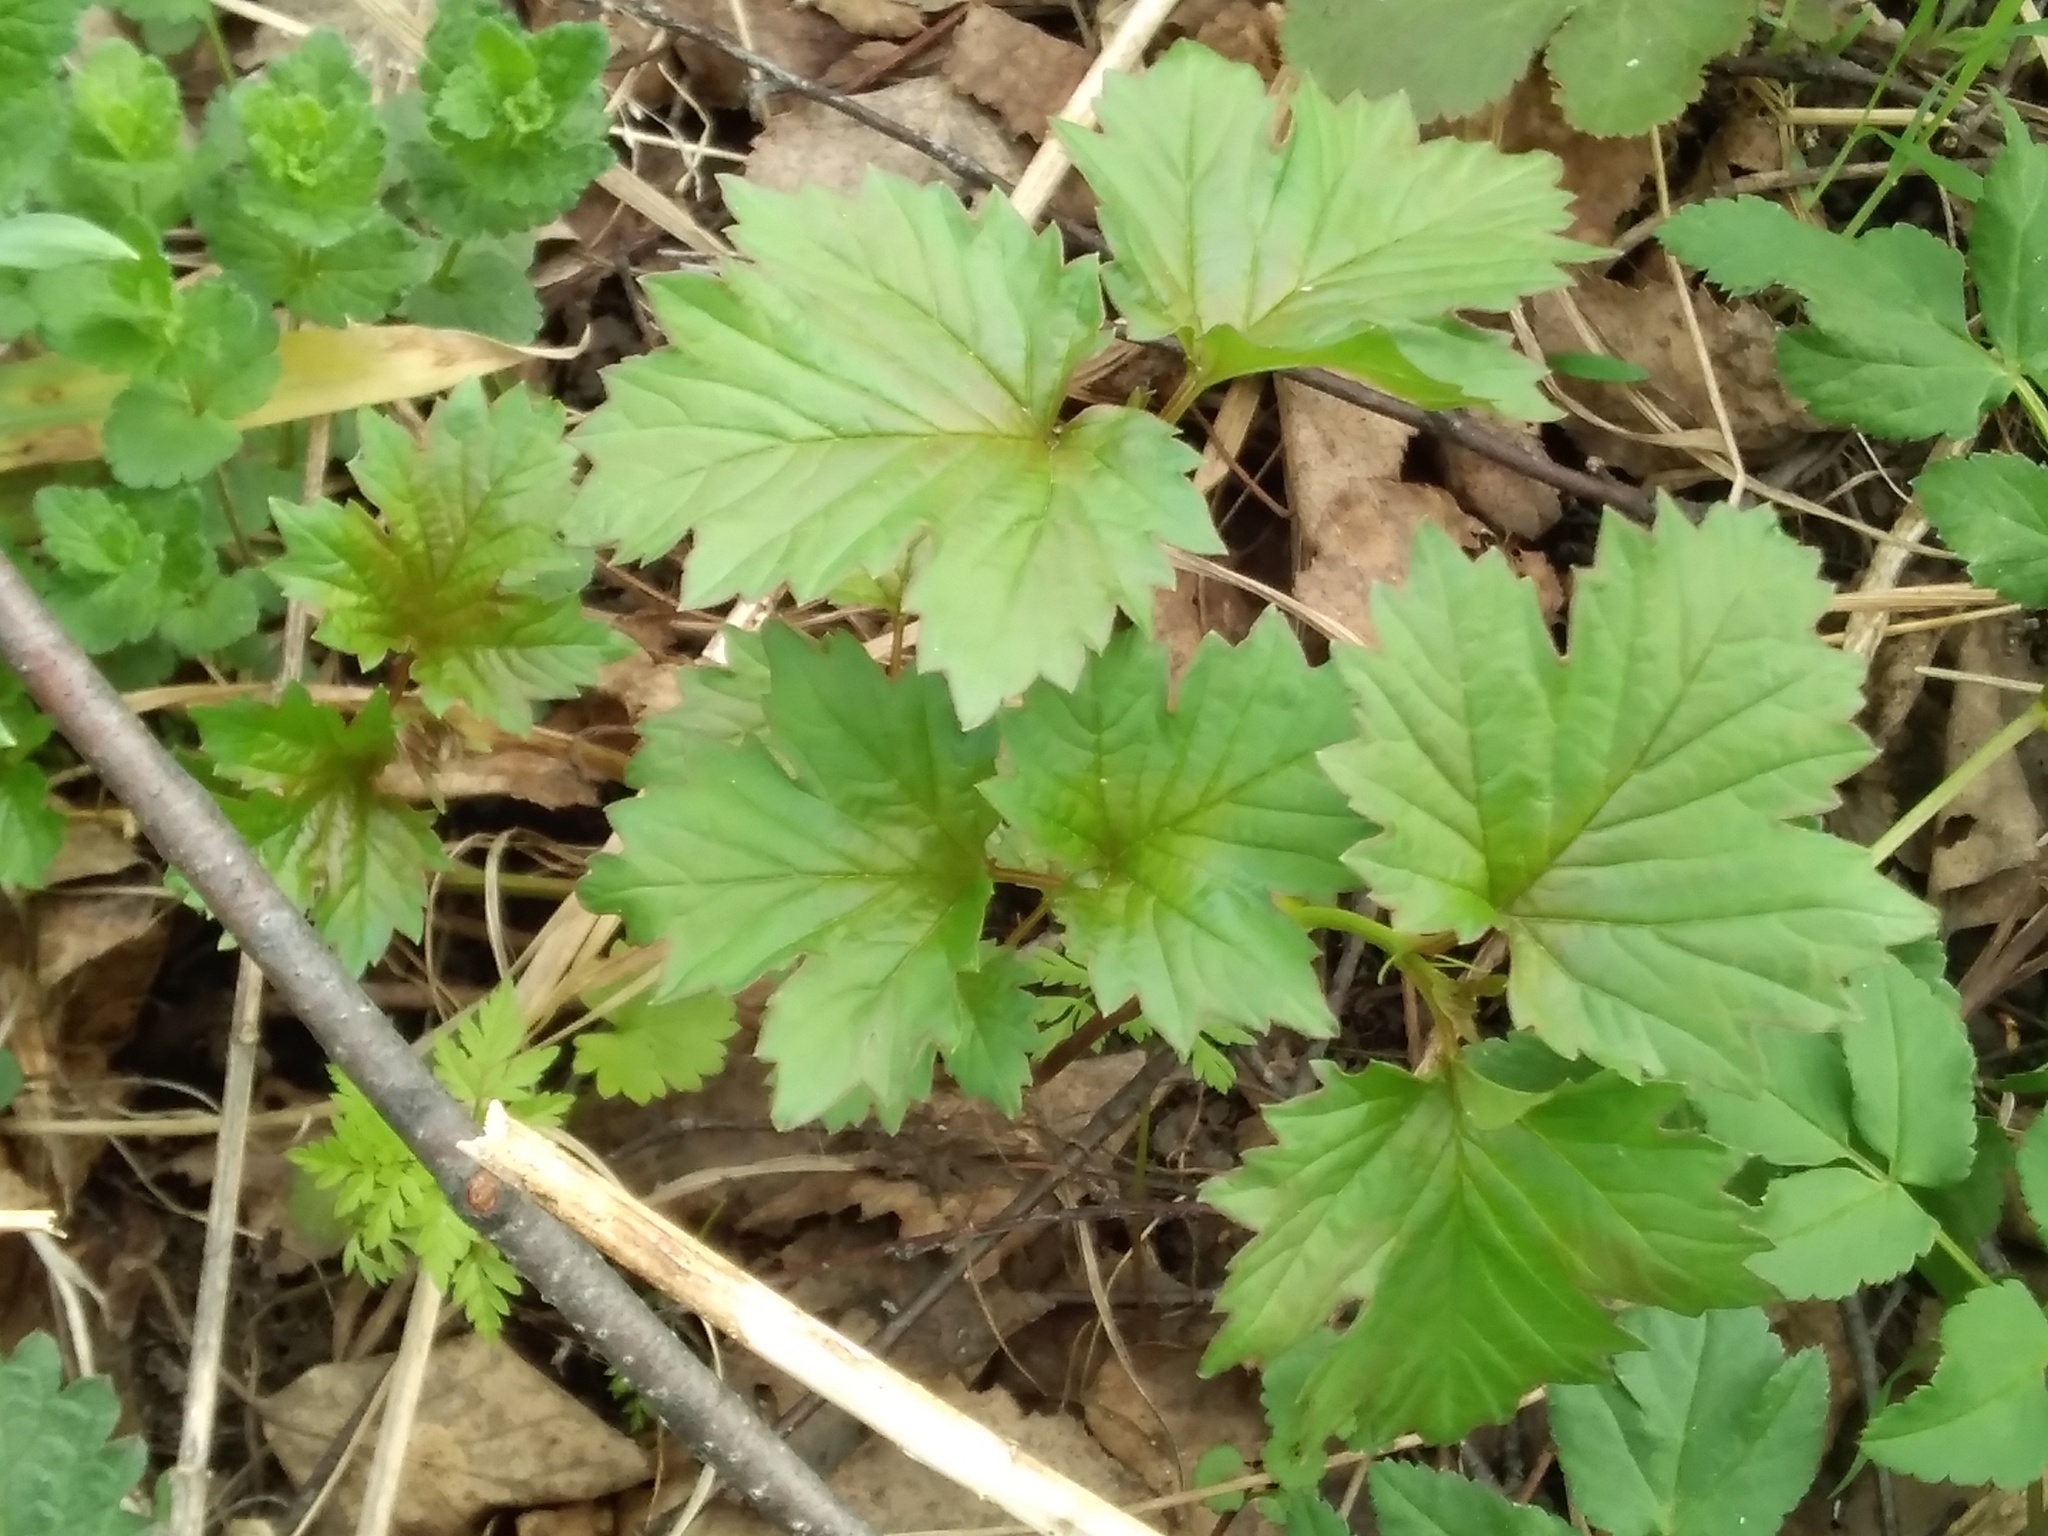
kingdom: Plantae
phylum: Tracheophyta
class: Magnoliopsida
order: Dipsacales
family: Viburnaceae
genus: Viburnum
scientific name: Viburnum opulus
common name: Guelder-rose
